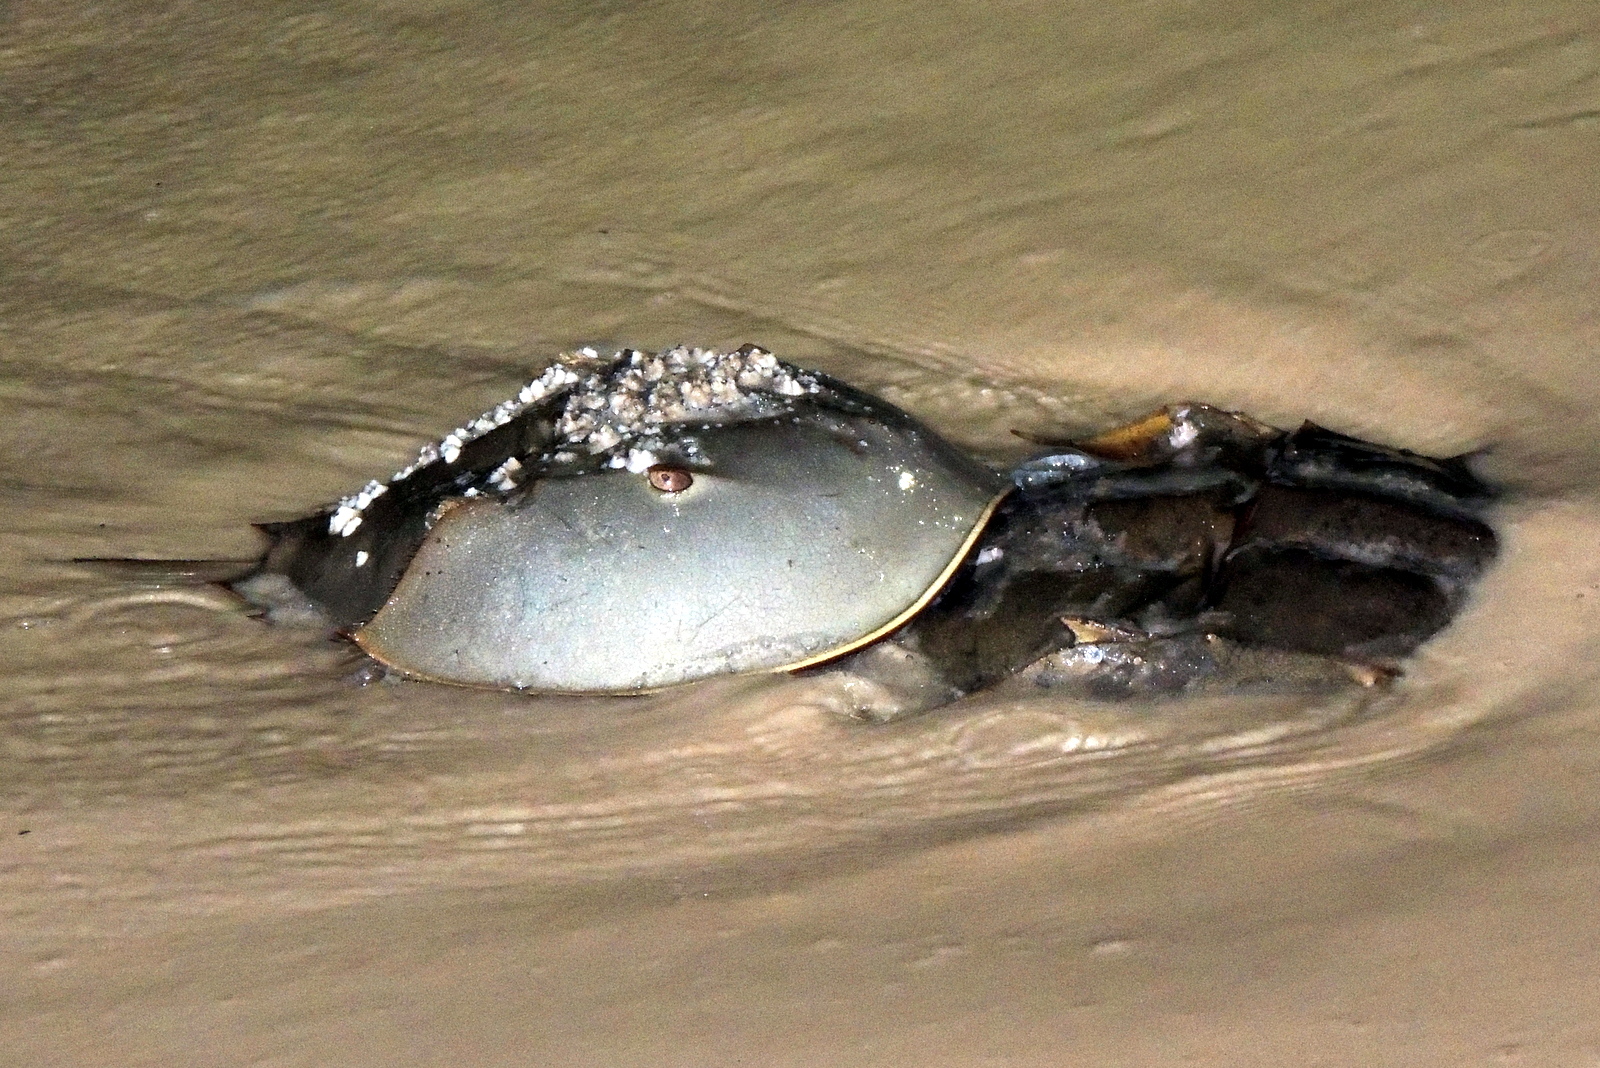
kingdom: Animalia
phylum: Arthropoda
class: Merostomata
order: Xiphosurida
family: Limulidae
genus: Limulus
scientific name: Limulus polyphemus
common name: Horseshoe crab
